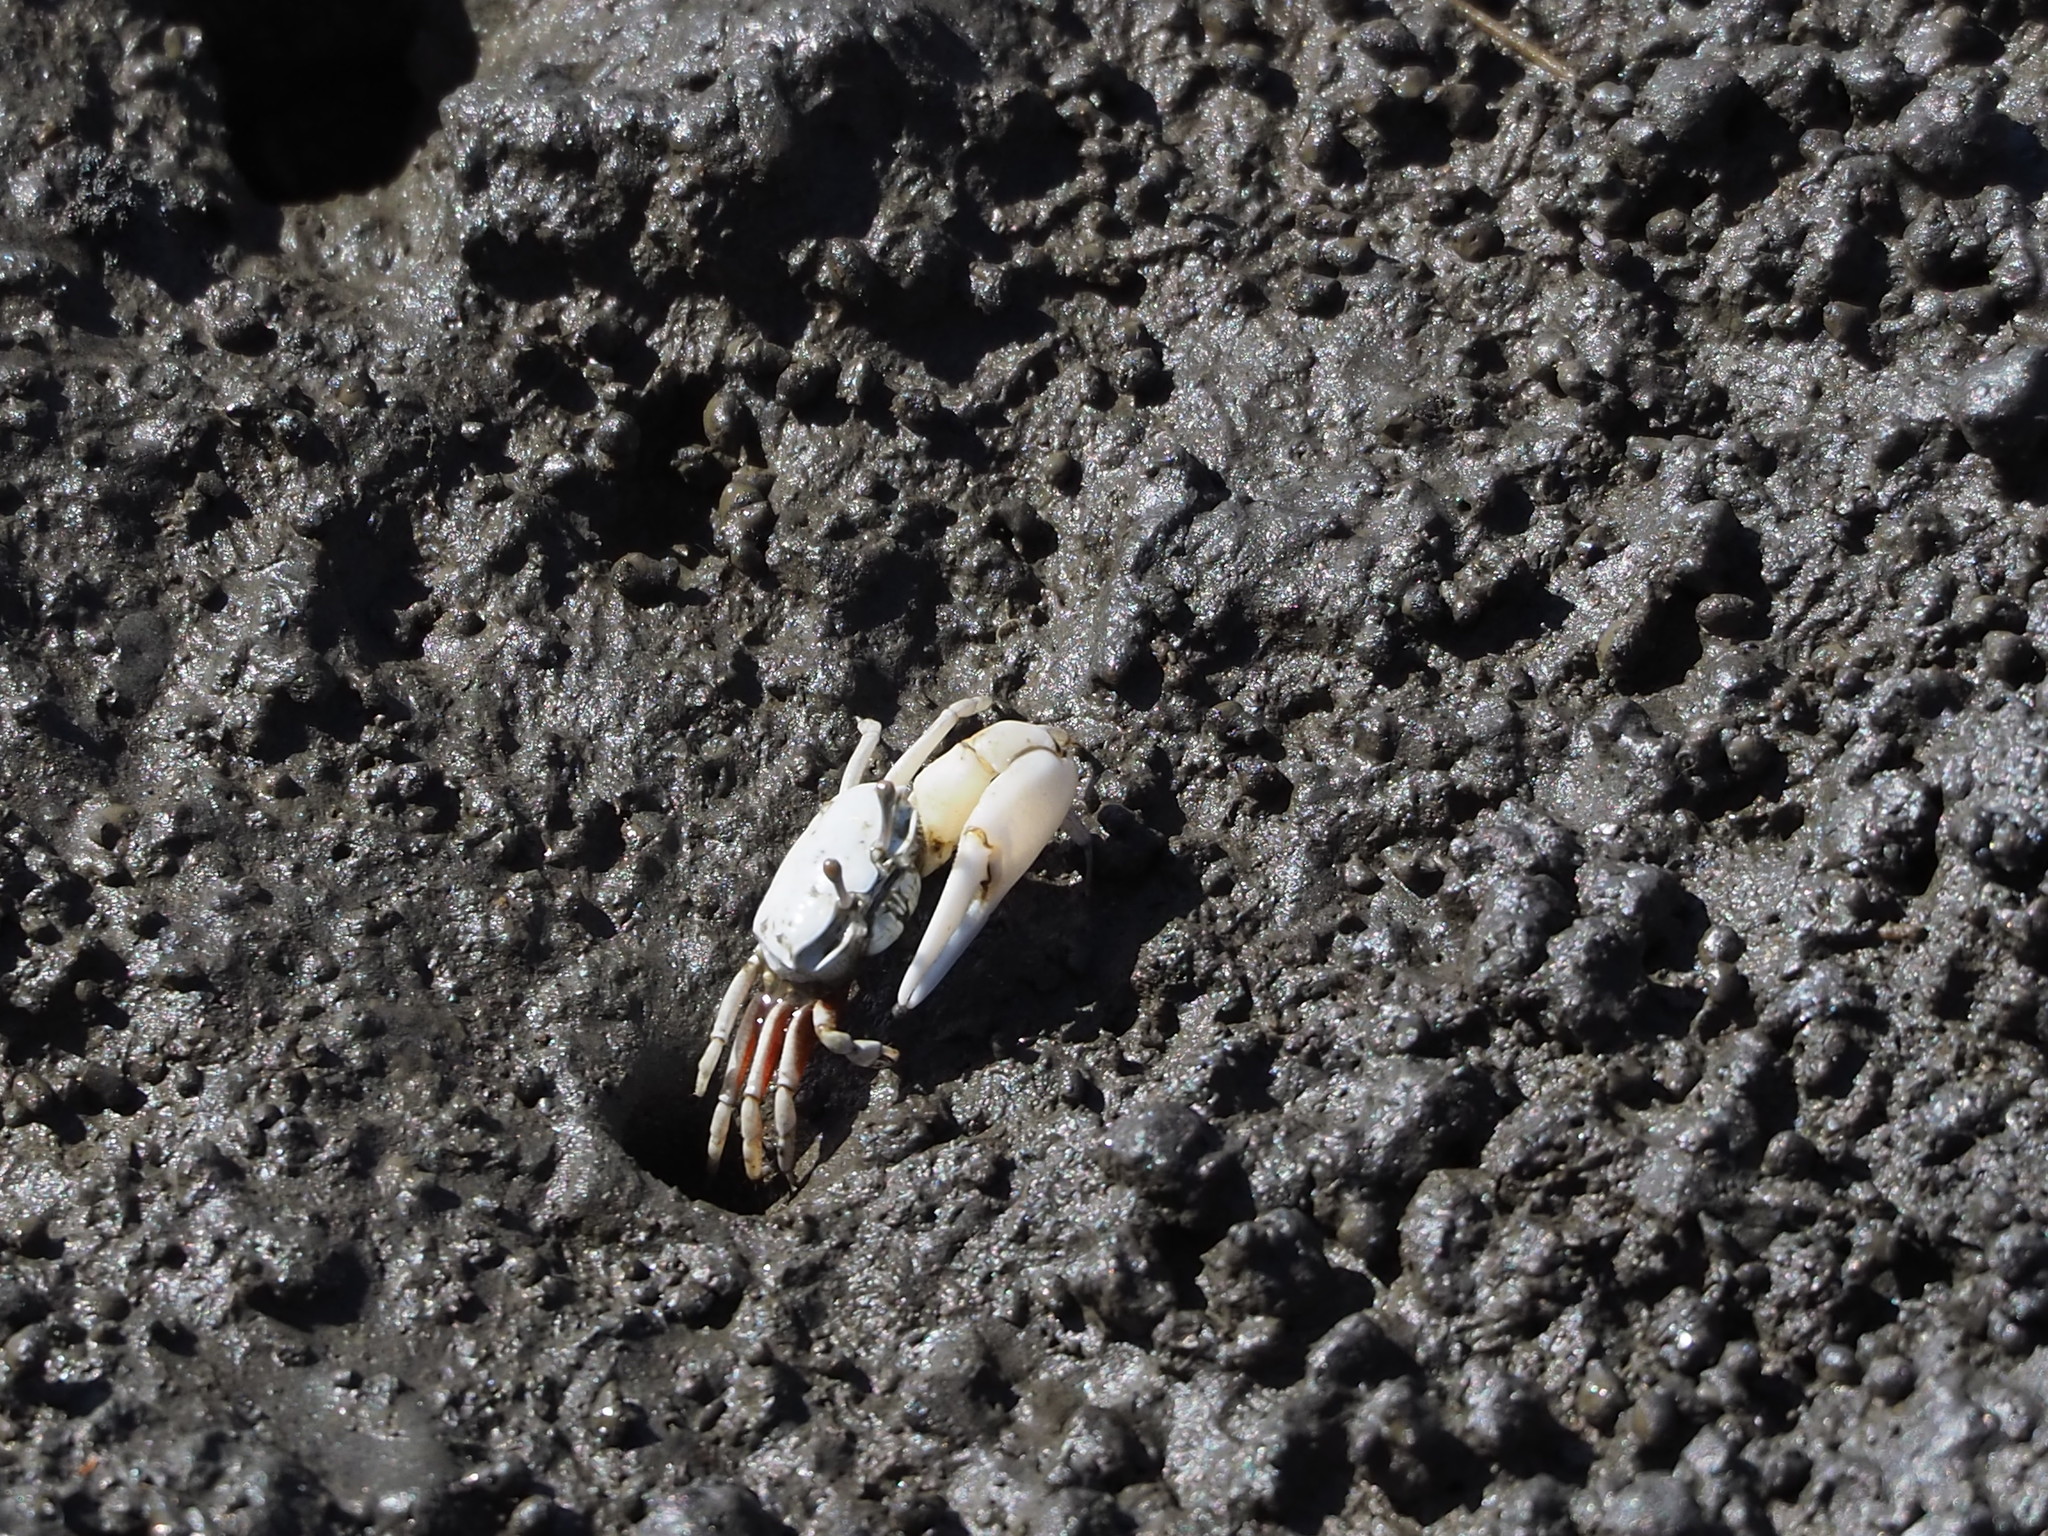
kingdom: Animalia
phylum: Arthropoda
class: Malacostraca
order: Decapoda
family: Ocypodidae
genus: Austruca
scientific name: Austruca lactea
